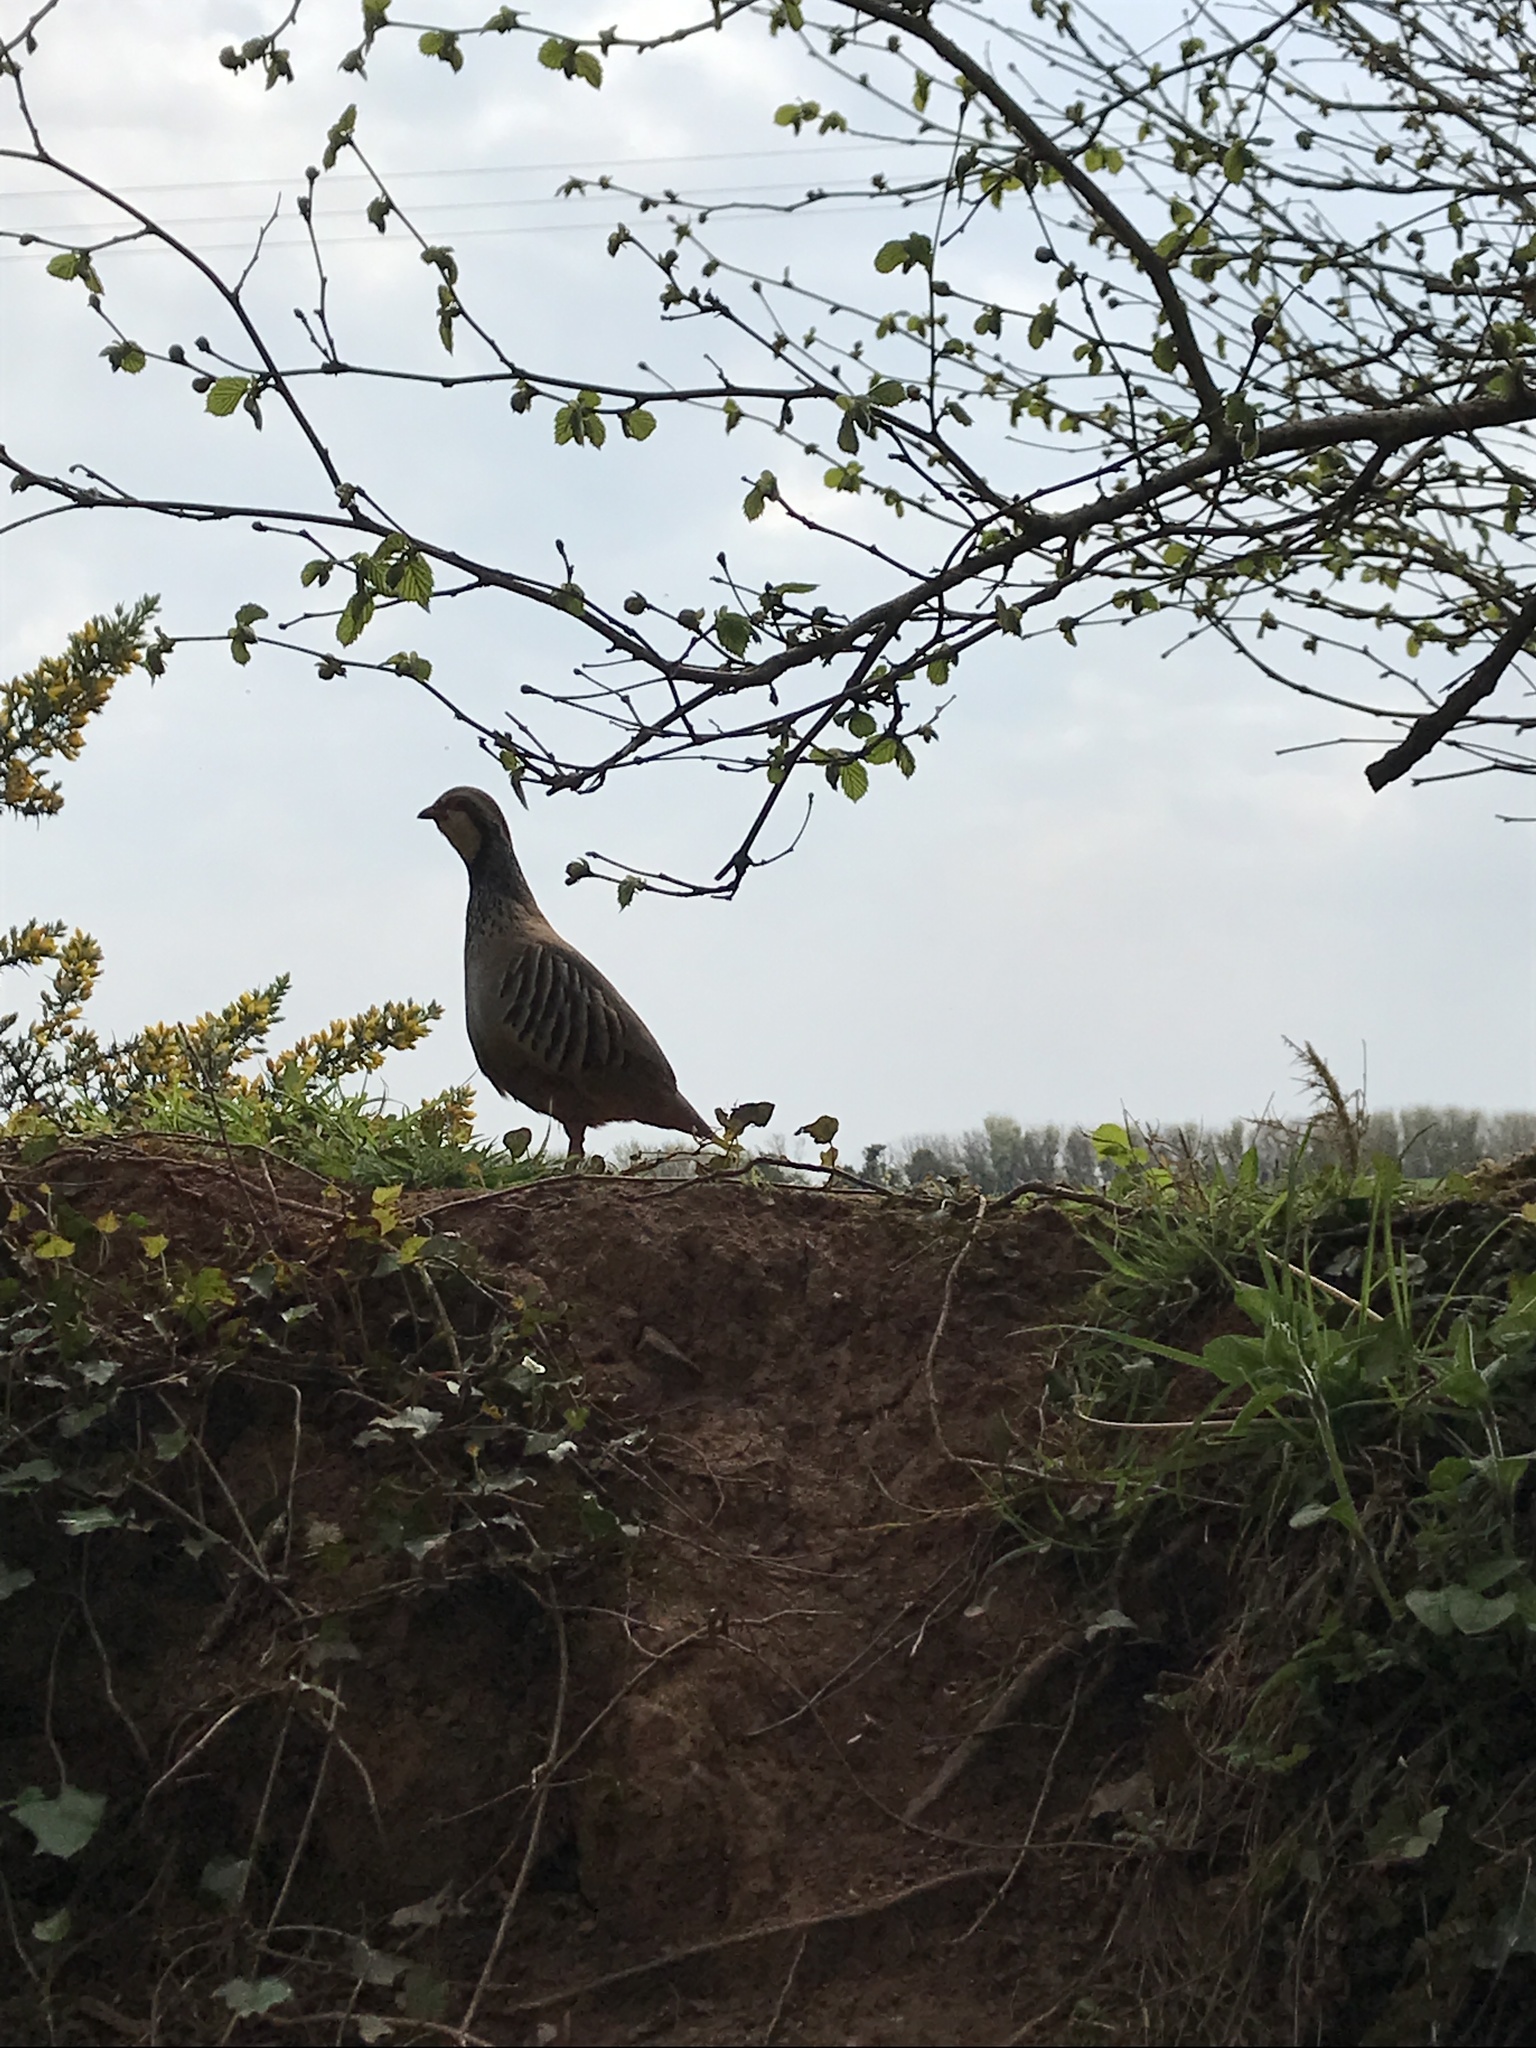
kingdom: Animalia
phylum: Chordata
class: Aves
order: Galliformes
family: Phasianidae
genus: Alectoris
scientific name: Alectoris rufa
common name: Red-legged partridge
